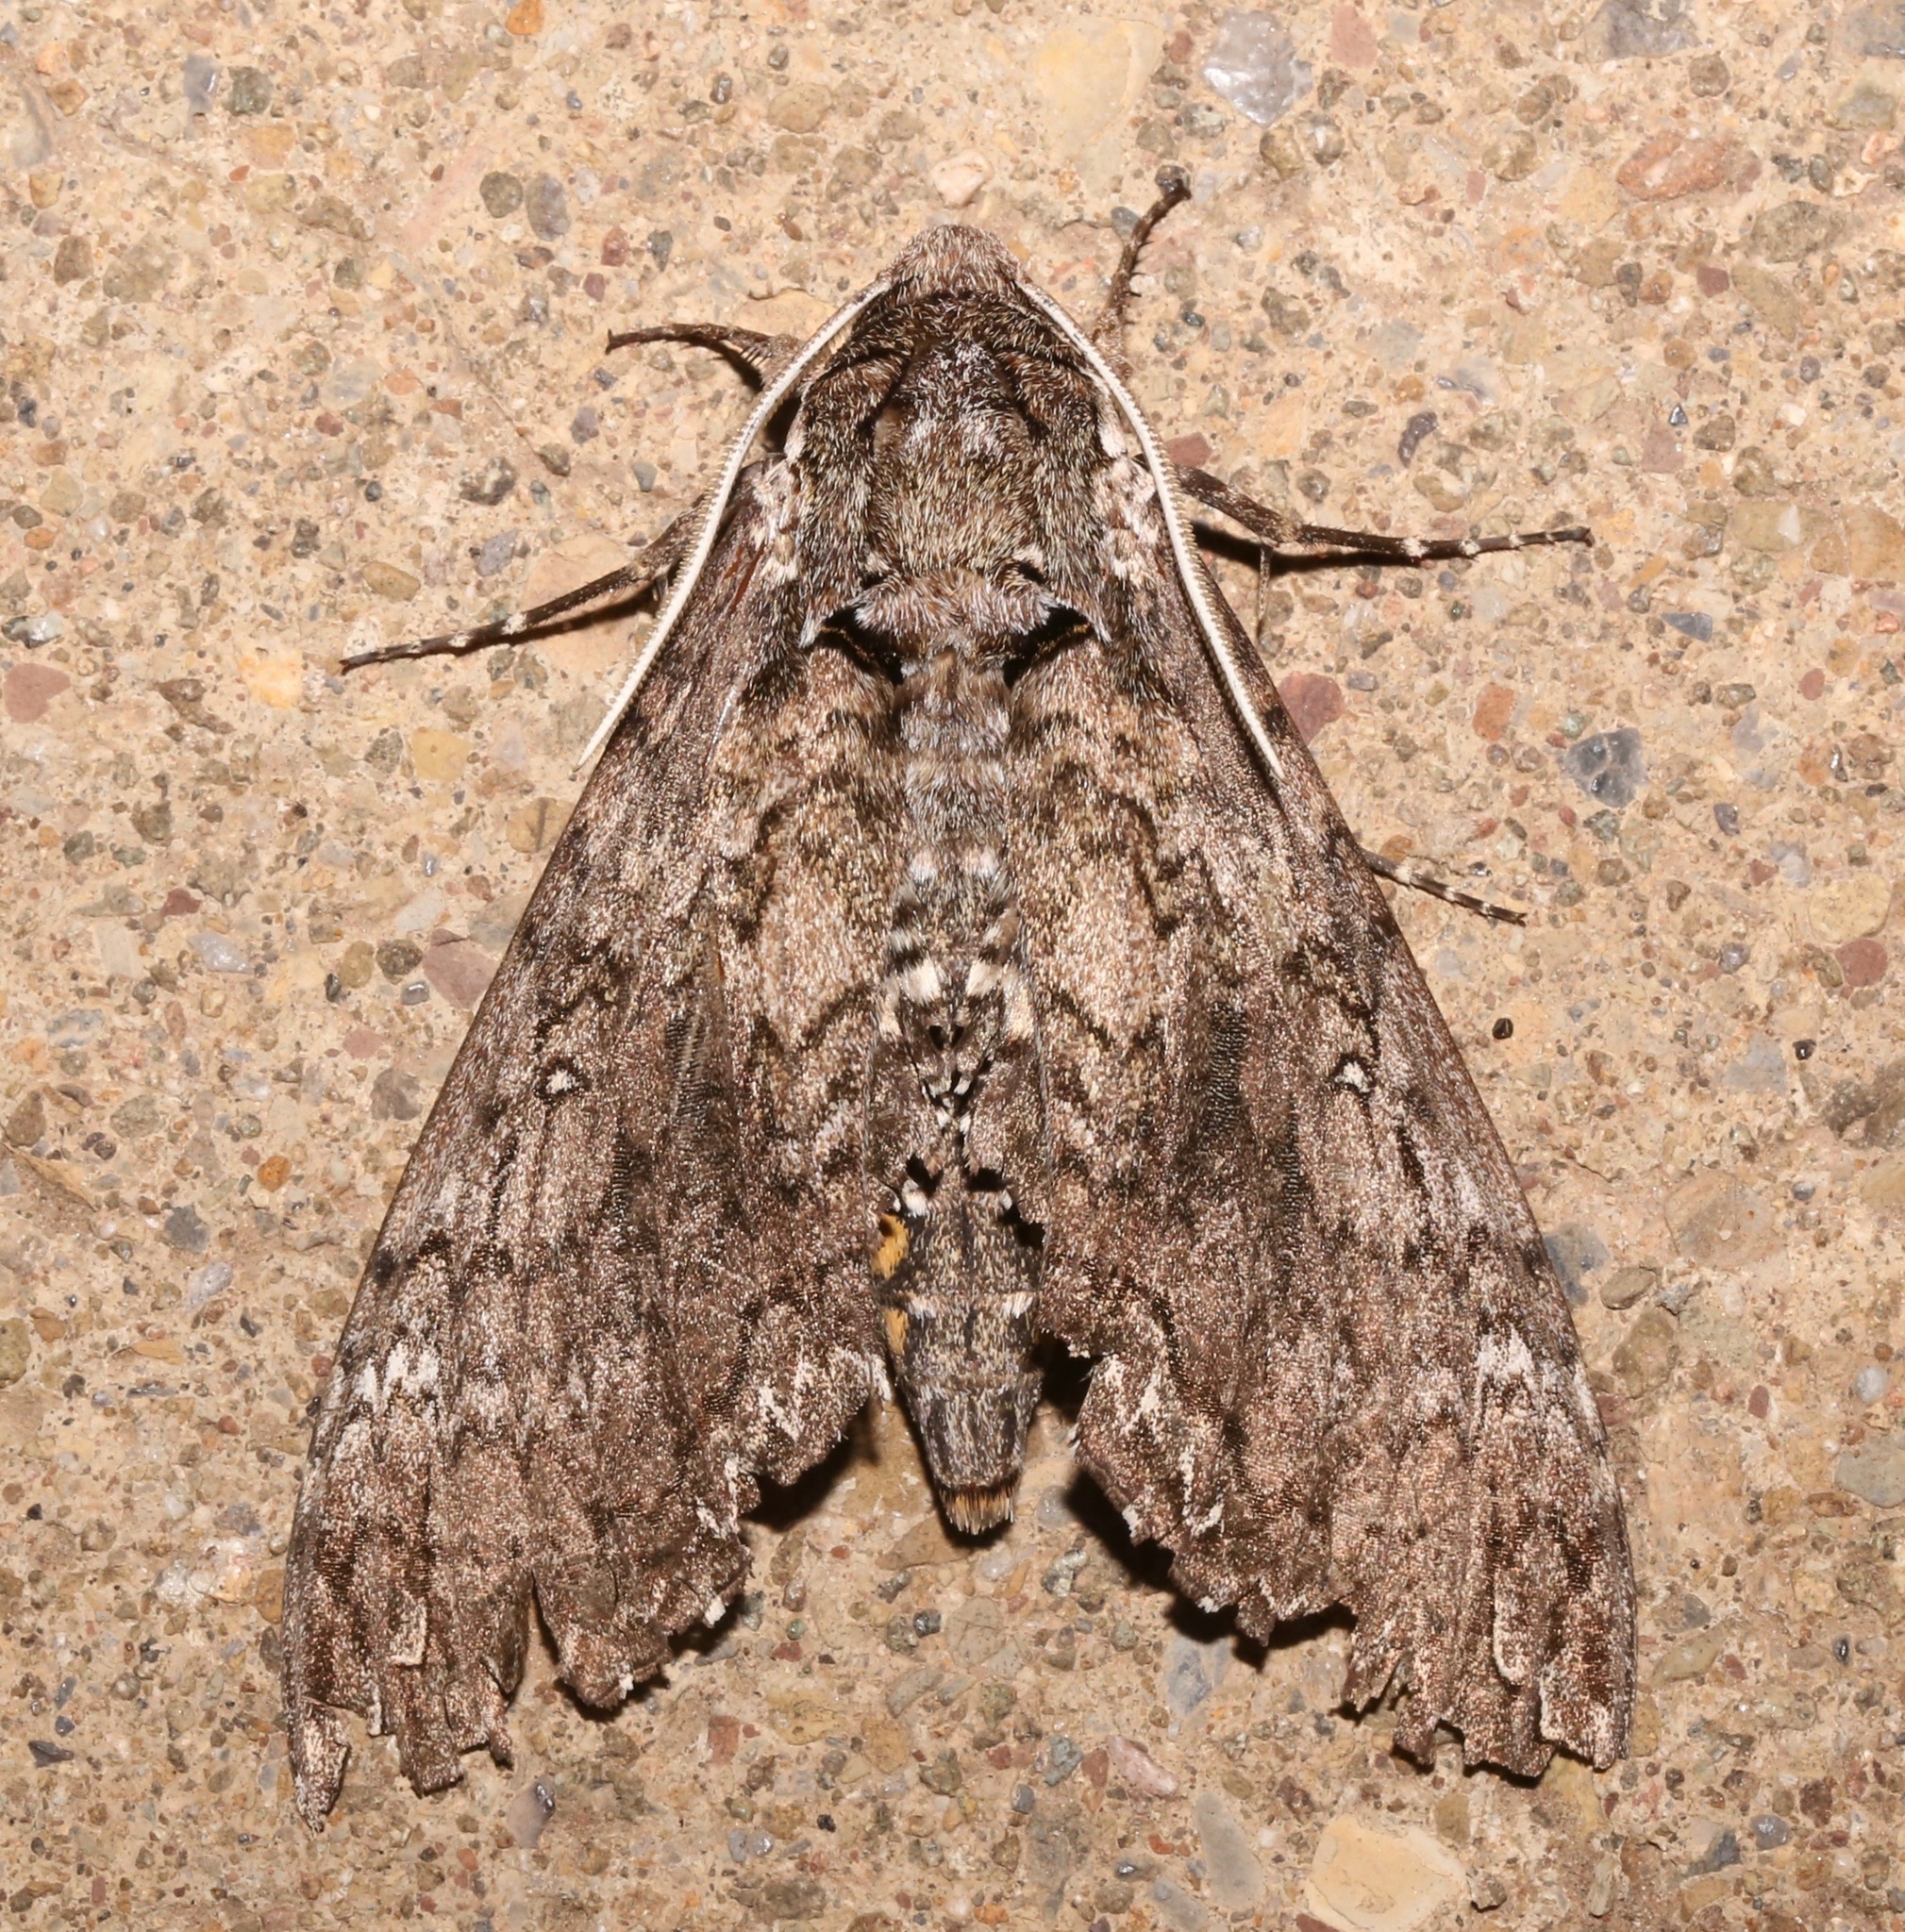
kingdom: Animalia
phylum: Arthropoda
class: Insecta
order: Lepidoptera
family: Sphingidae
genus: Manduca
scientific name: Manduca sexta
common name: Carolina sphinx
